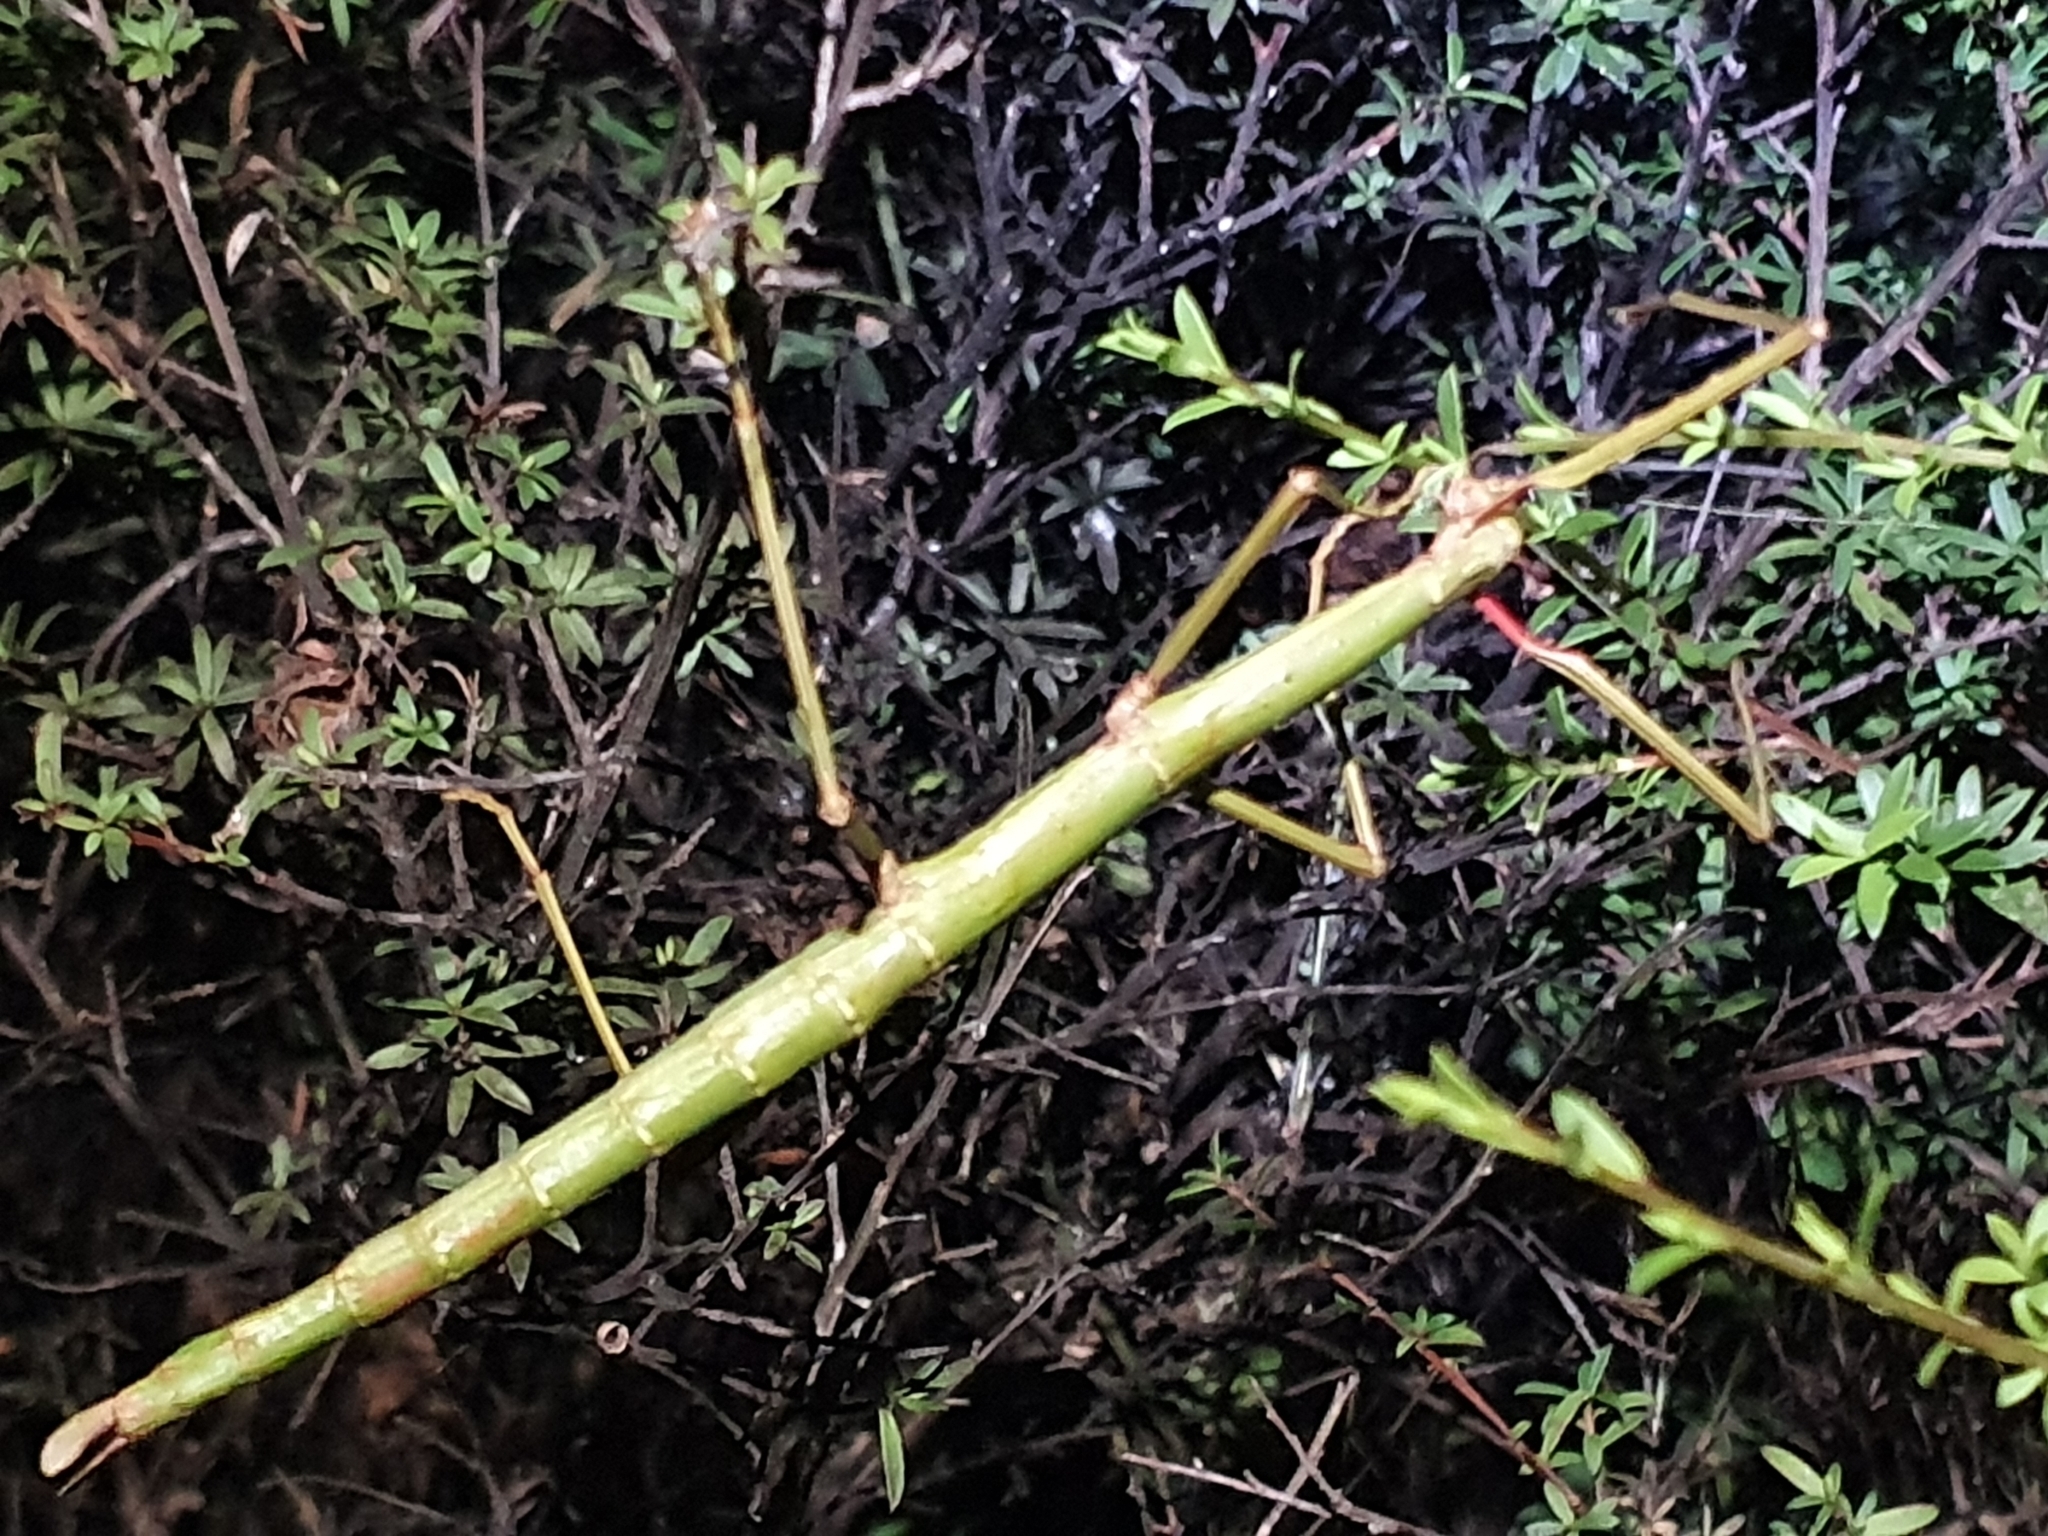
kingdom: Animalia
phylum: Arthropoda
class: Insecta
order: Phasmida
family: Phasmatidae
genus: Acanthoxyla
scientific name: Acanthoxyla inermis
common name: Unarmed stick insect
